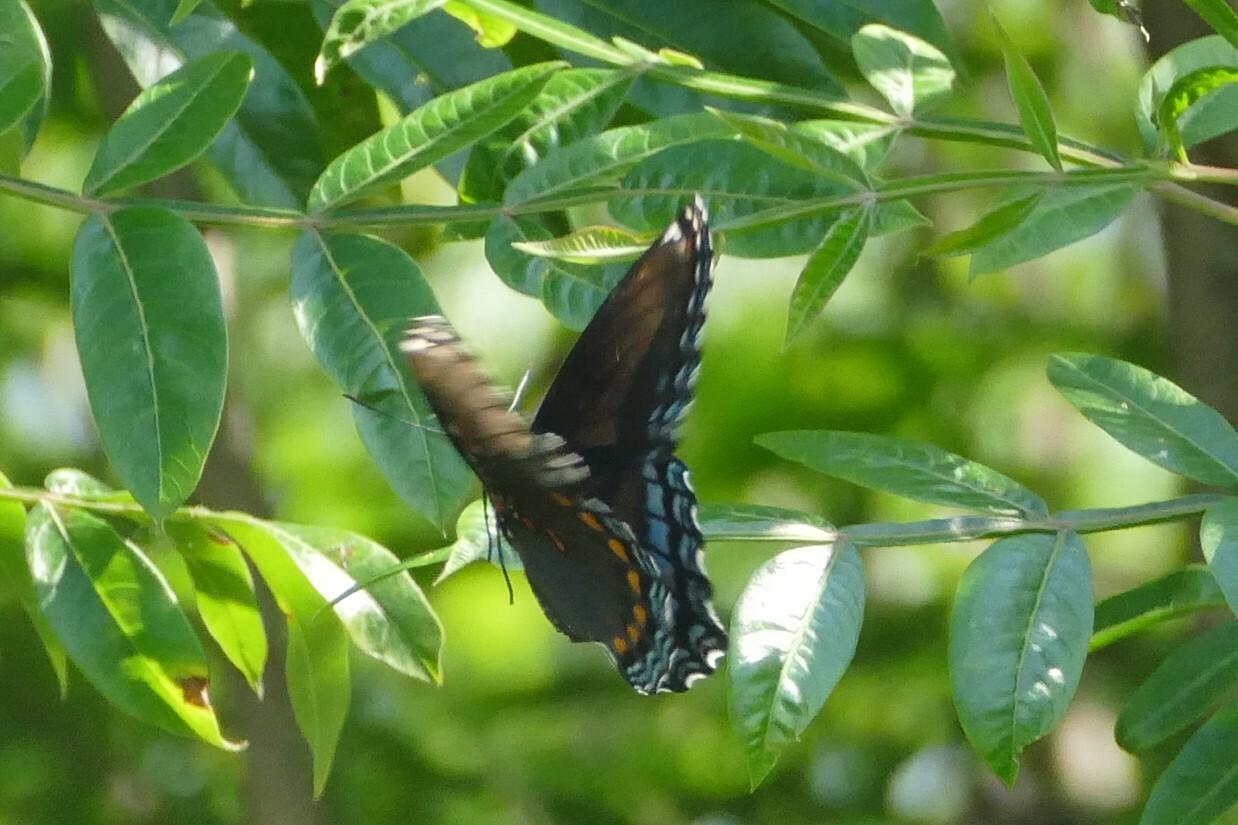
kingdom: Animalia
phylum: Arthropoda
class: Insecta
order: Lepidoptera
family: Nymphalidae
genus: Limenitis
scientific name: Limenitis arthemis
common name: Red-spotted admiral
